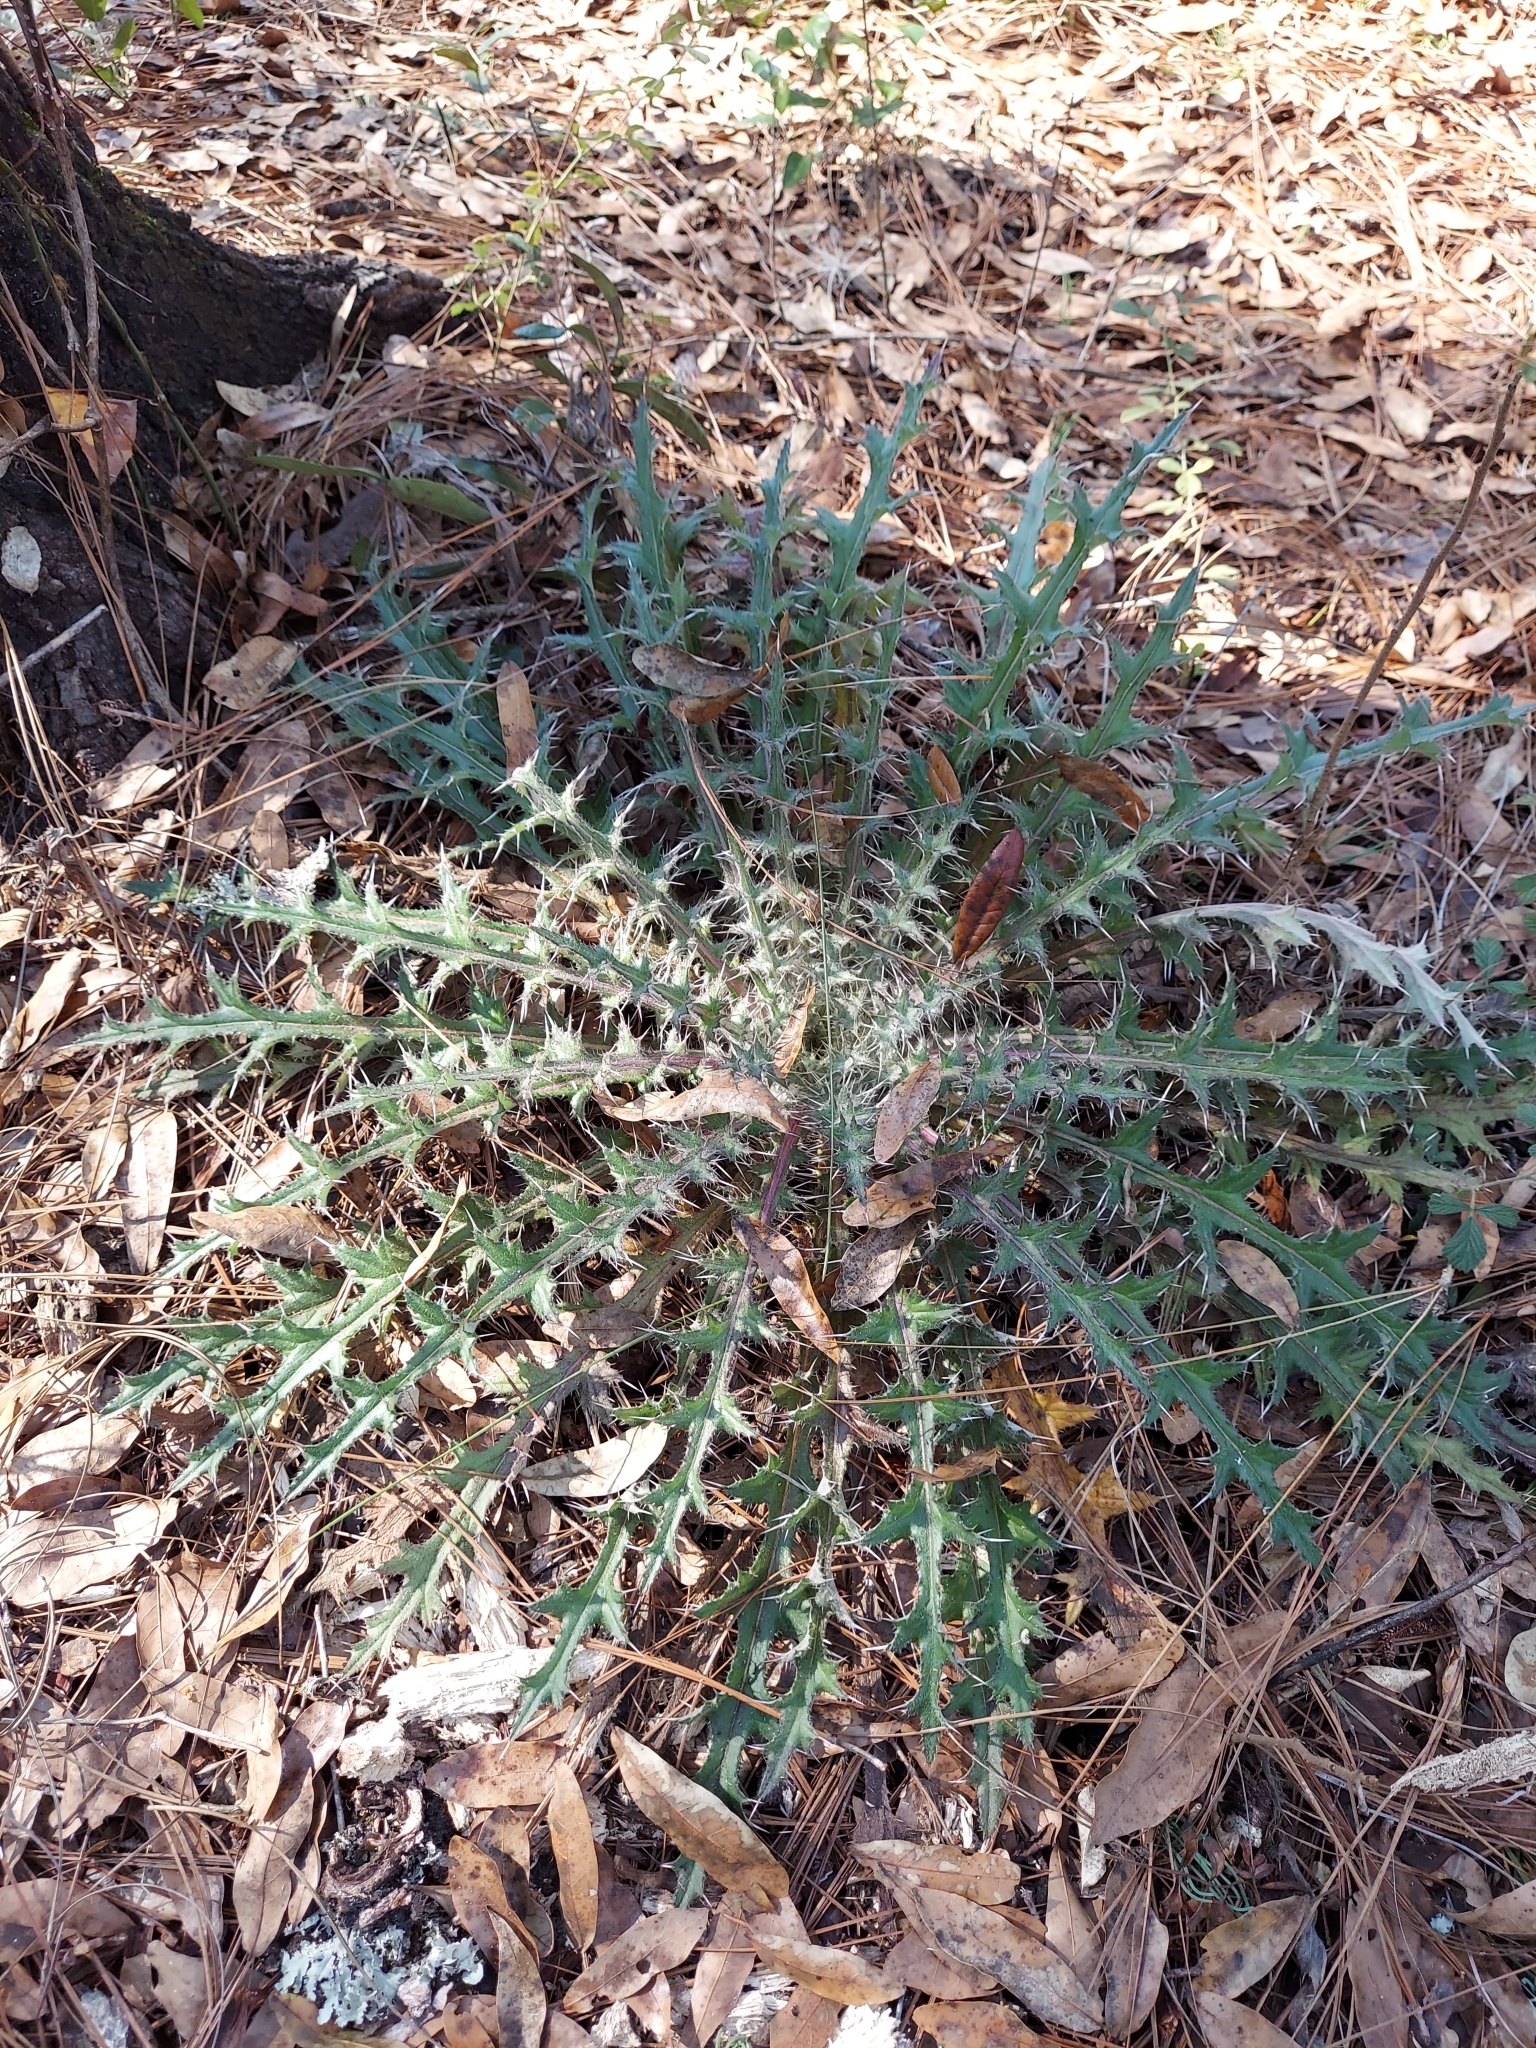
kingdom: Plantae
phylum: Tracheophyta
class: Magnoliopsida
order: Asterales
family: Asteraceae
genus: Cirsium
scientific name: Cirsium horridulum
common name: Bristly thistle
